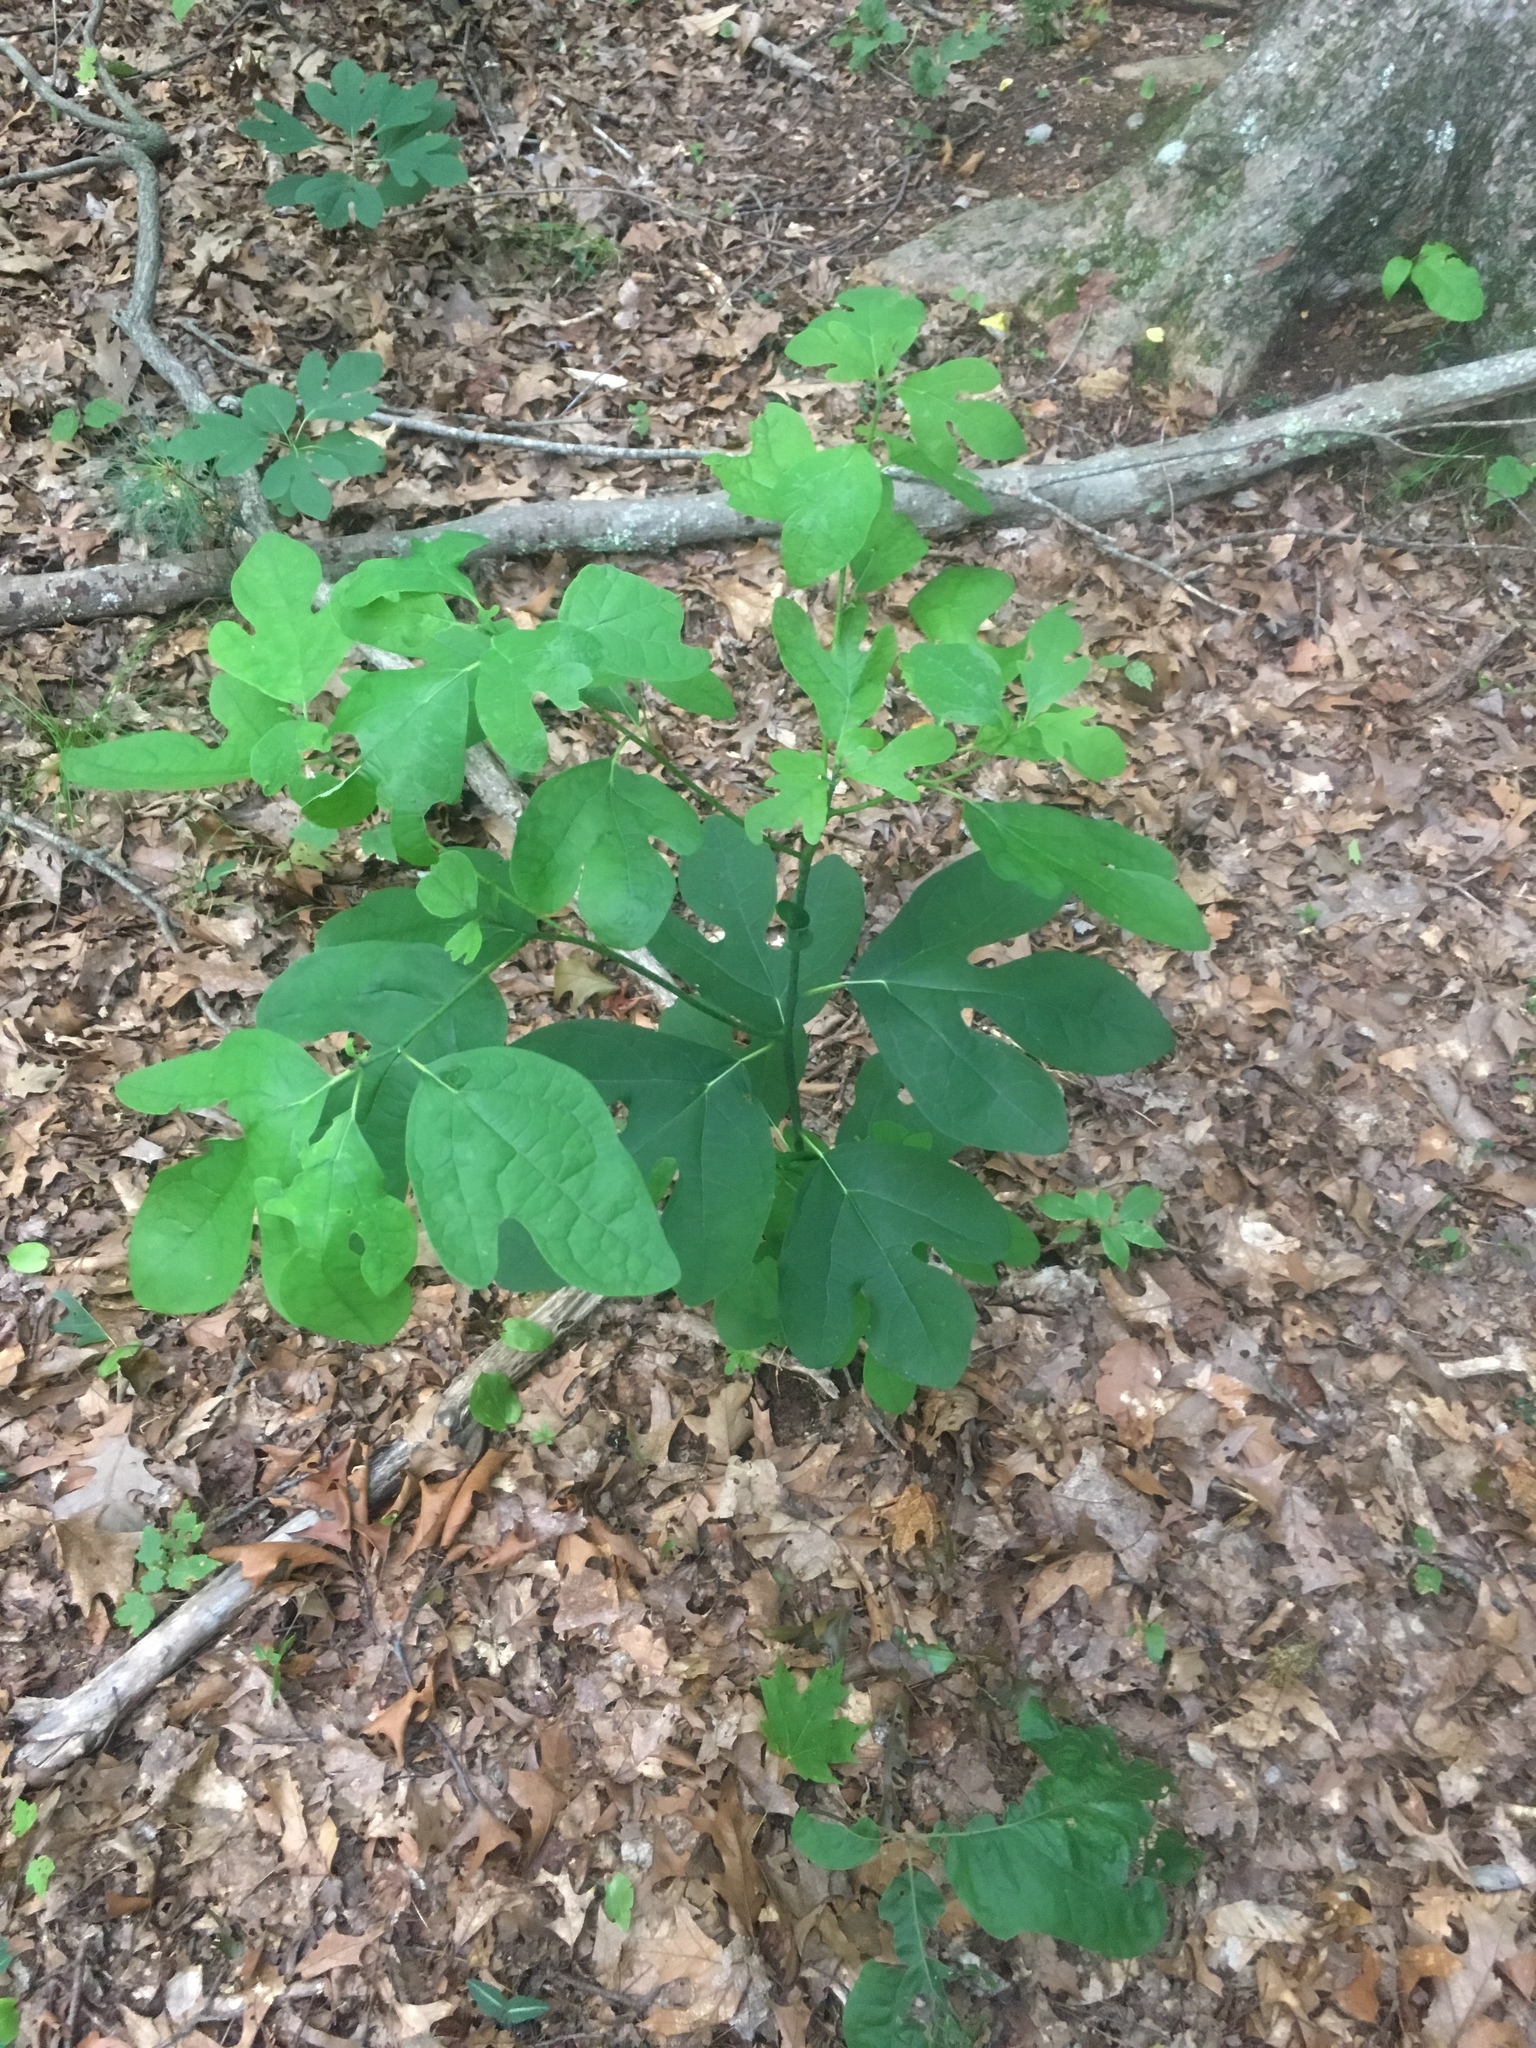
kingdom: Plantae
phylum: Tracheophyta
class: Magnoliopsida
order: Laurales
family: Lauraceae
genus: Sassafras
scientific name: Sassafras albidum
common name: Sassafras
